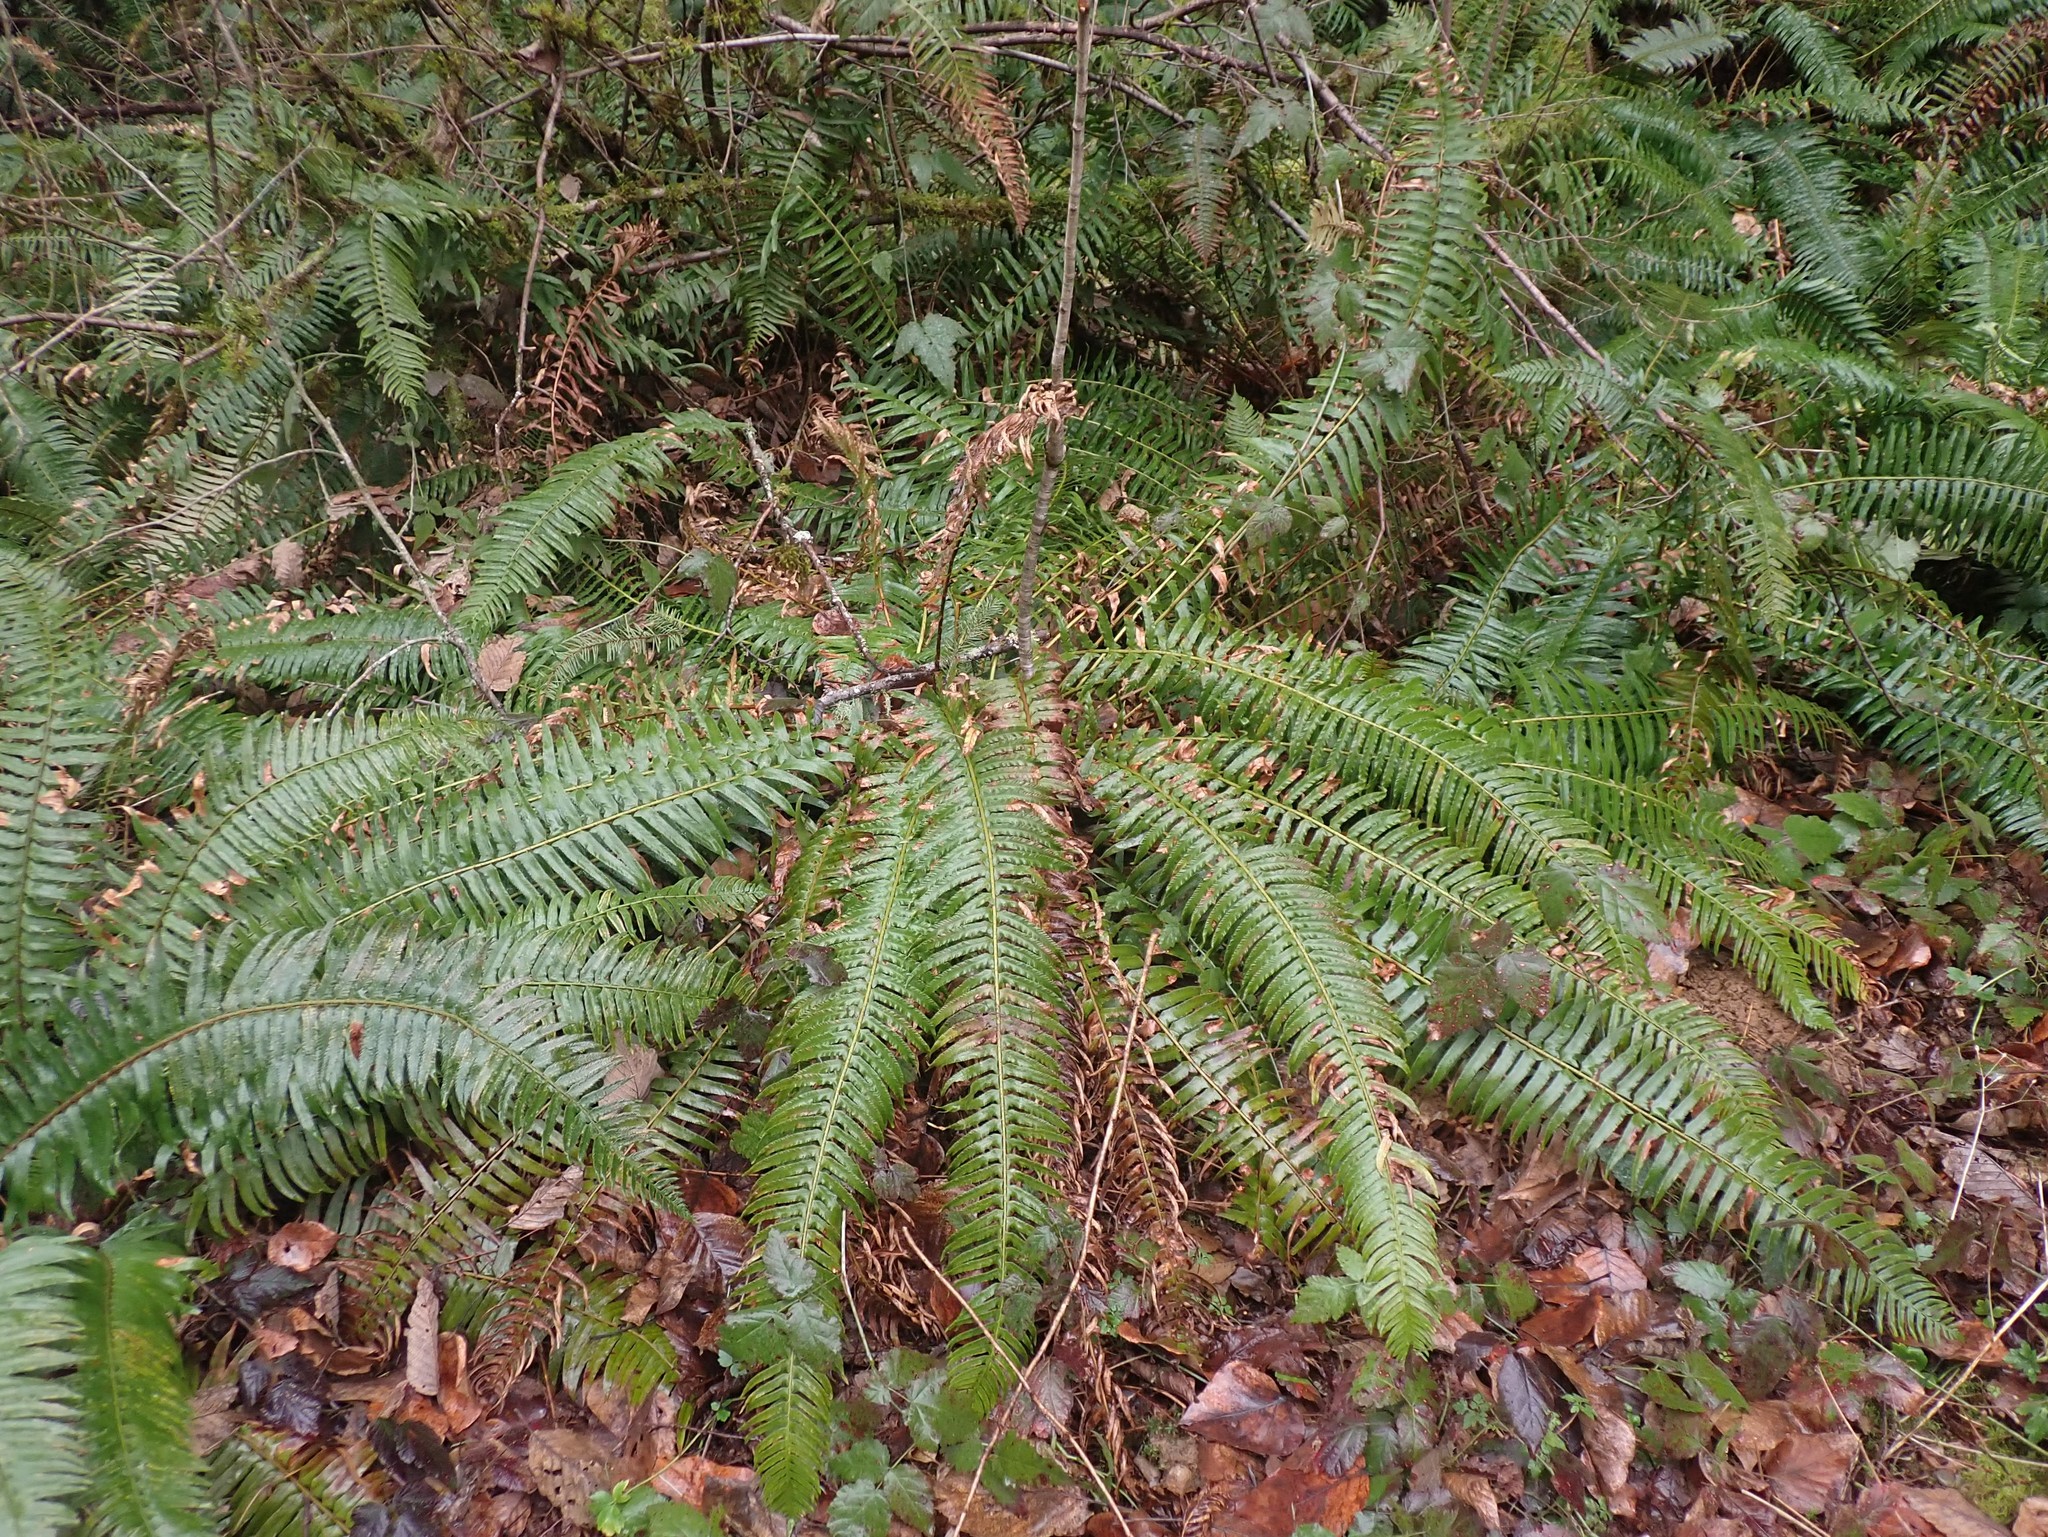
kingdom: Plantae
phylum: Tracheophyta
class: Polypodiopsida
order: Polypodiales
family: Dryopteridaceae
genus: Polystichum
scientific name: Polystichum munitum
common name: Western sword-fern
